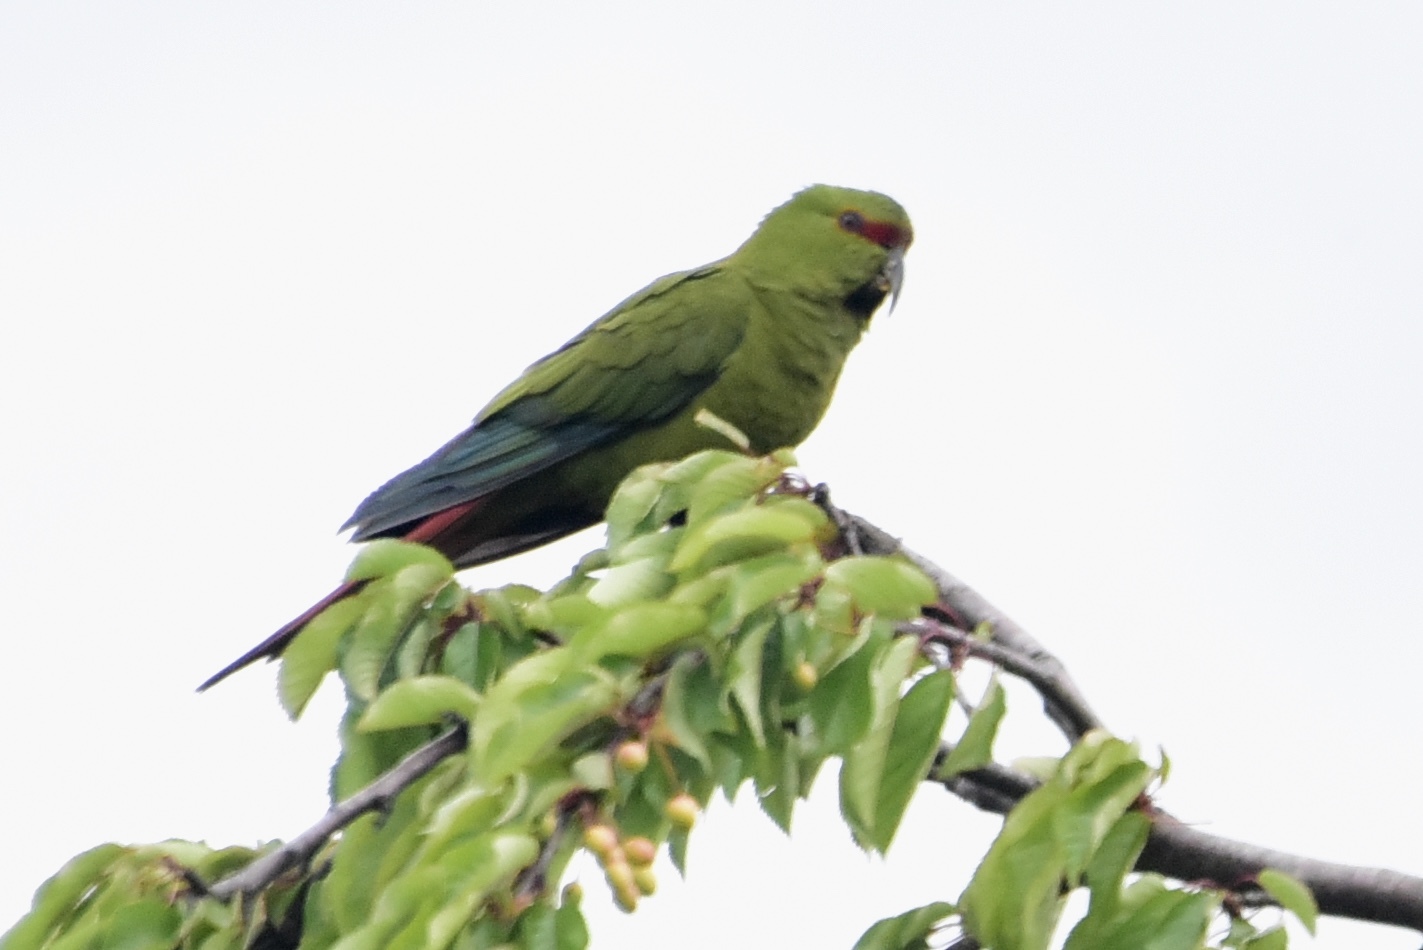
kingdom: Animalia
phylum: Chordata
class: Aves
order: Psittaciformes
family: Psittacidae
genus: Enicognathus
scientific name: Enicognathus leptorhynchus
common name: Slender-billed parakeet
